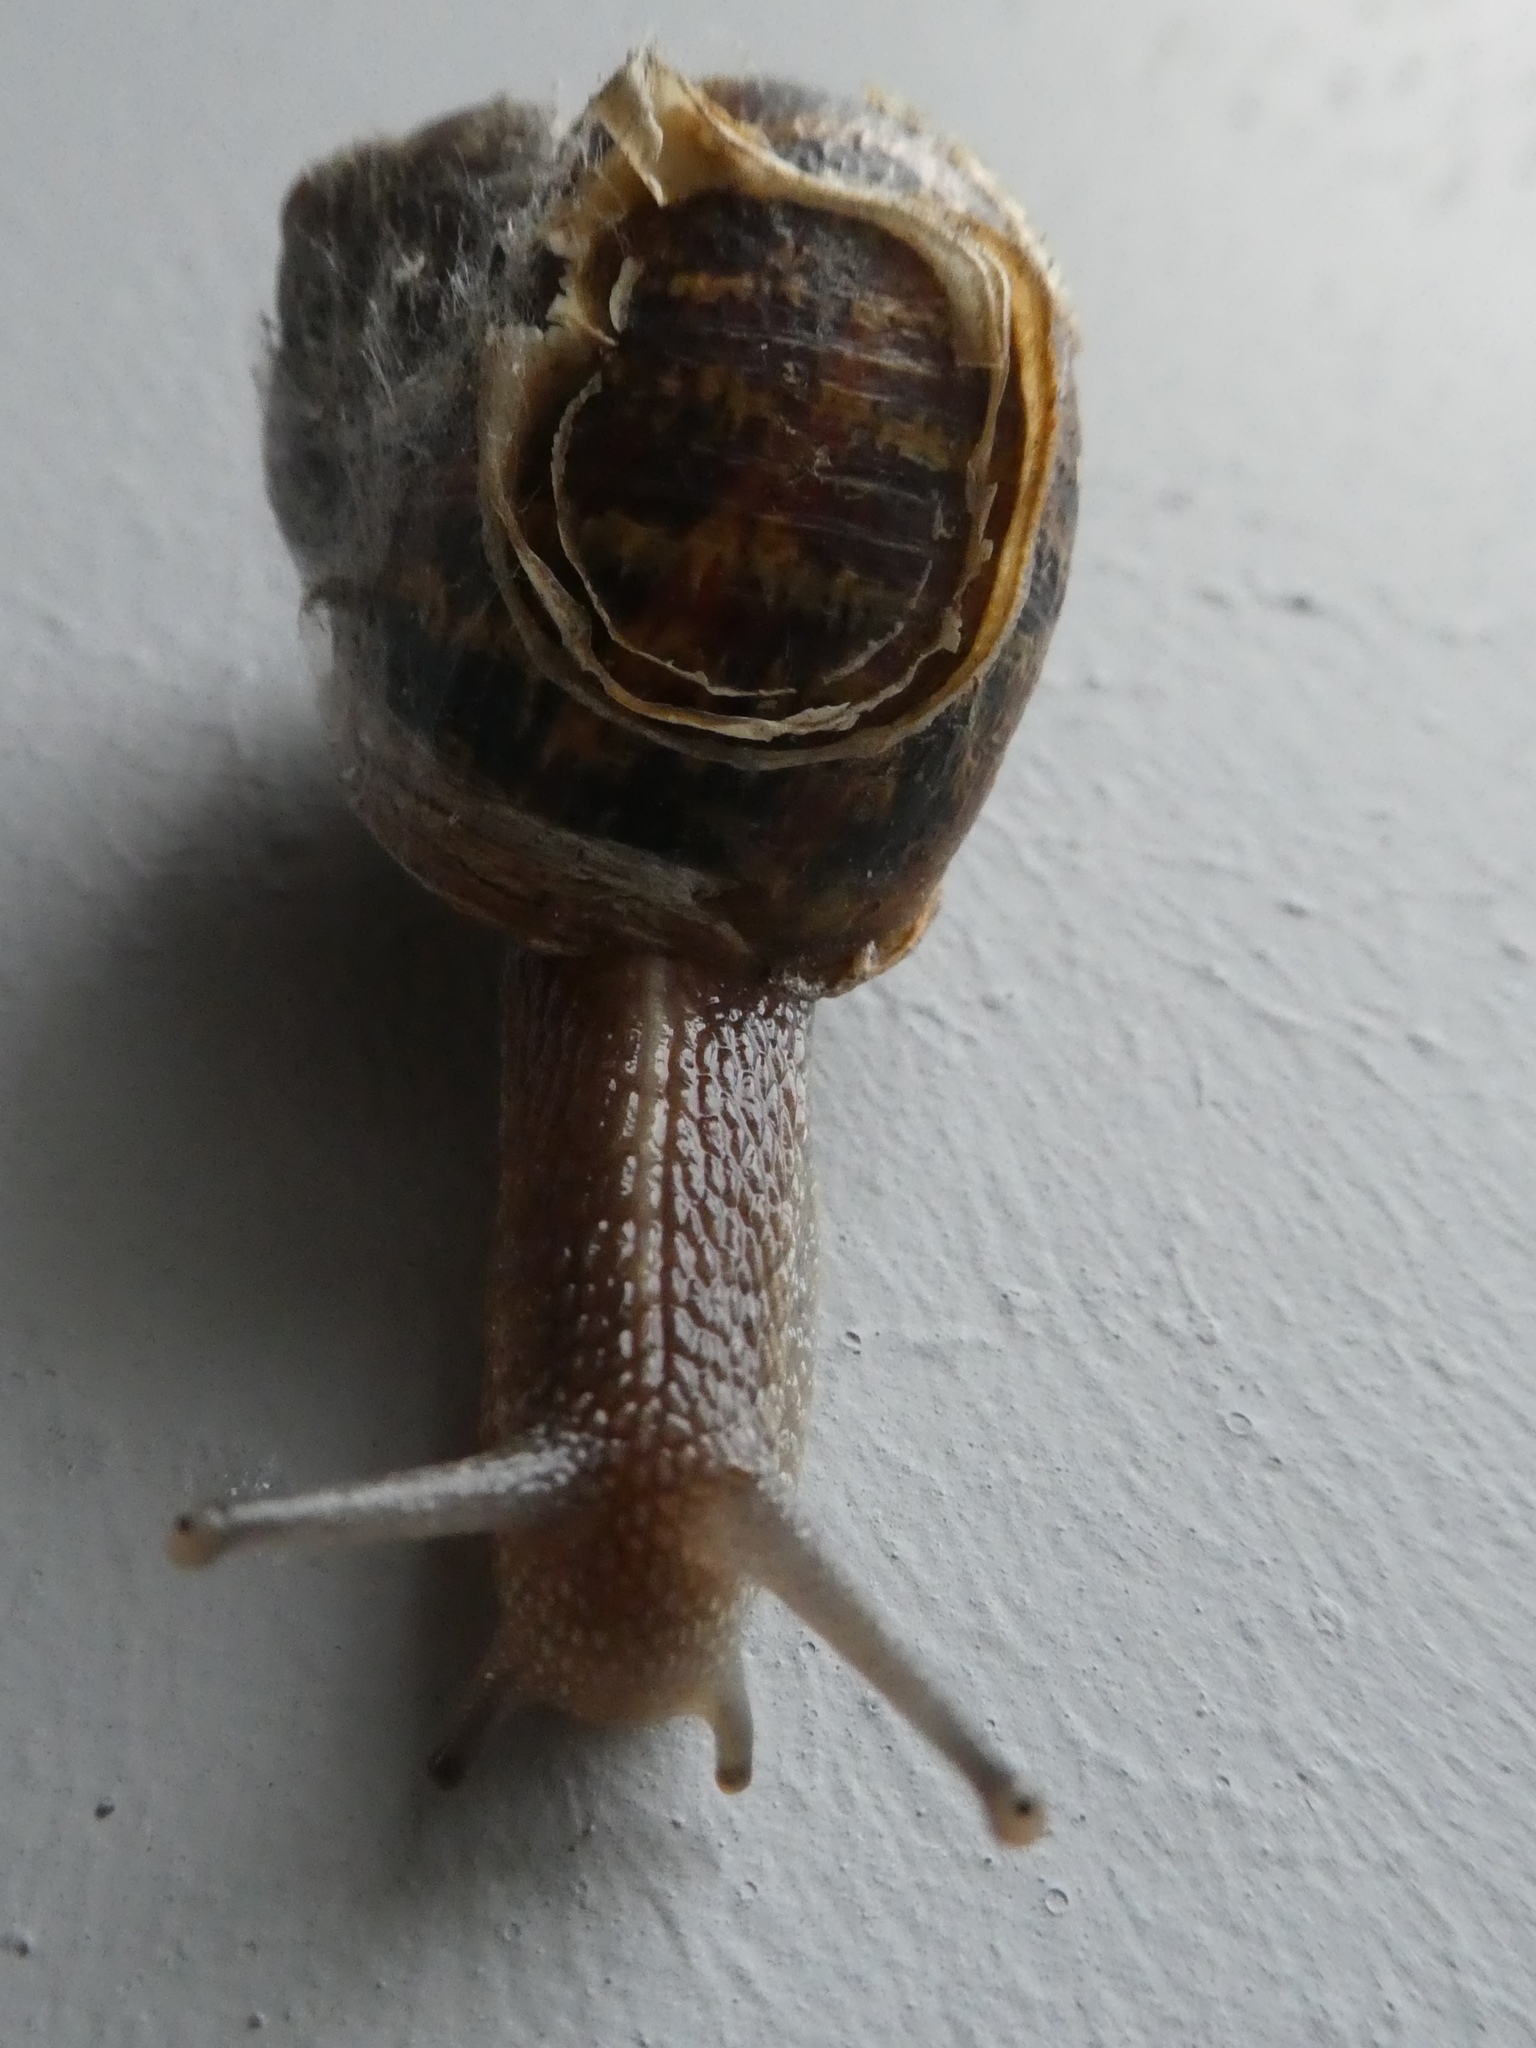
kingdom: Animalia
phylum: Mollusca
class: Gastropoda
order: Stylommatophora
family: Helicidae
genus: Cornu
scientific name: Cornu aspersum
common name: Brown garden snail
